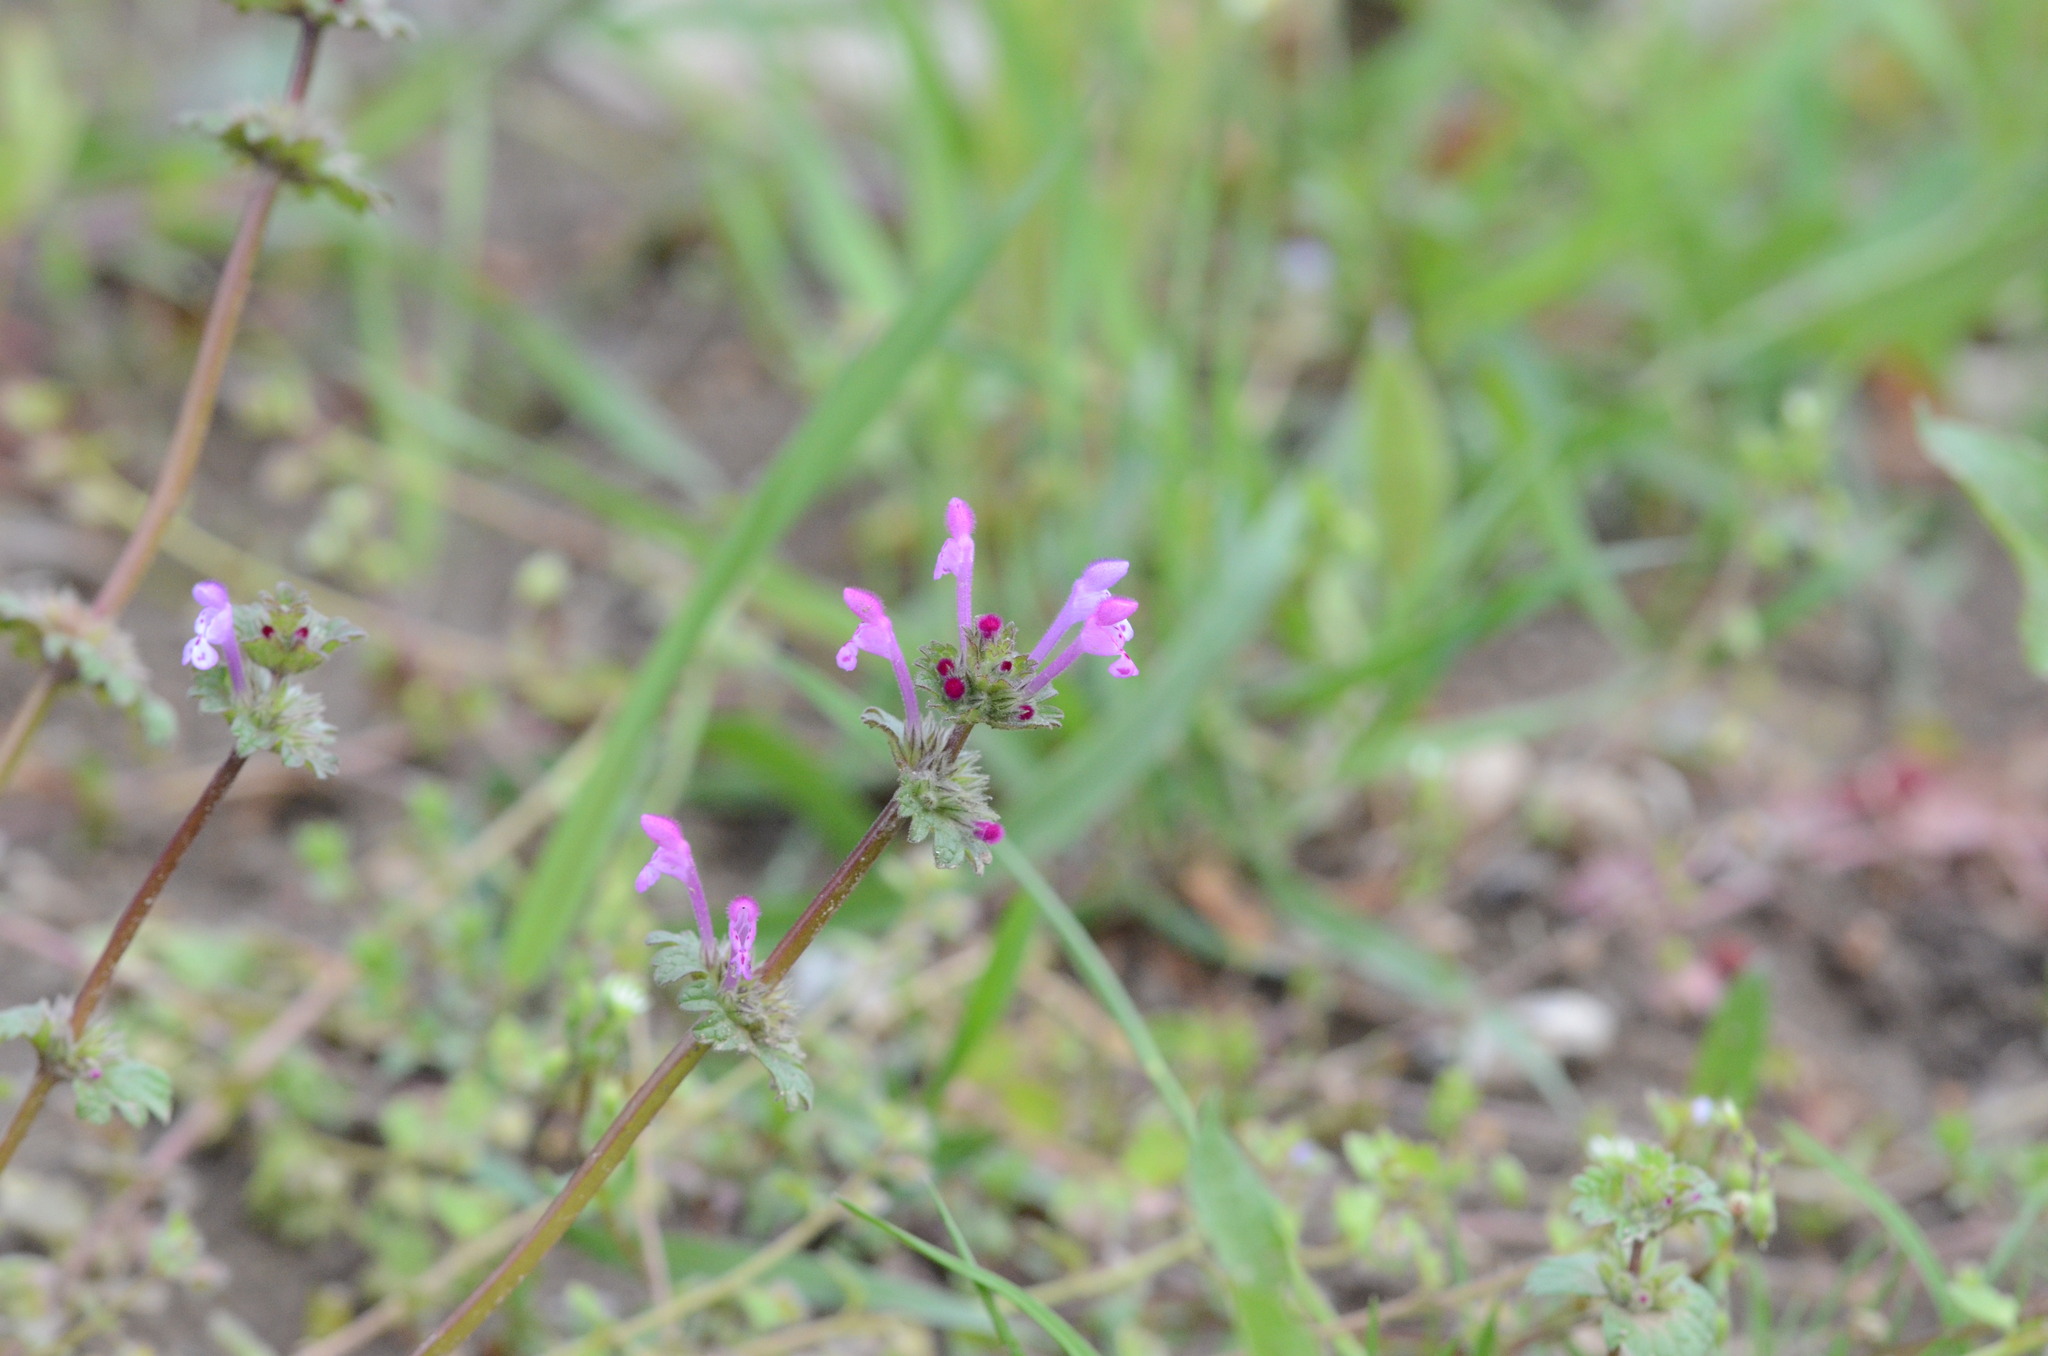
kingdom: Plantae
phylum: Tracheophyta
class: Magnoliopsida
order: Lamiales
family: Lamiaceae
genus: Lamium
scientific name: Lamium amplexicaule
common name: Henbit dead-nettle
